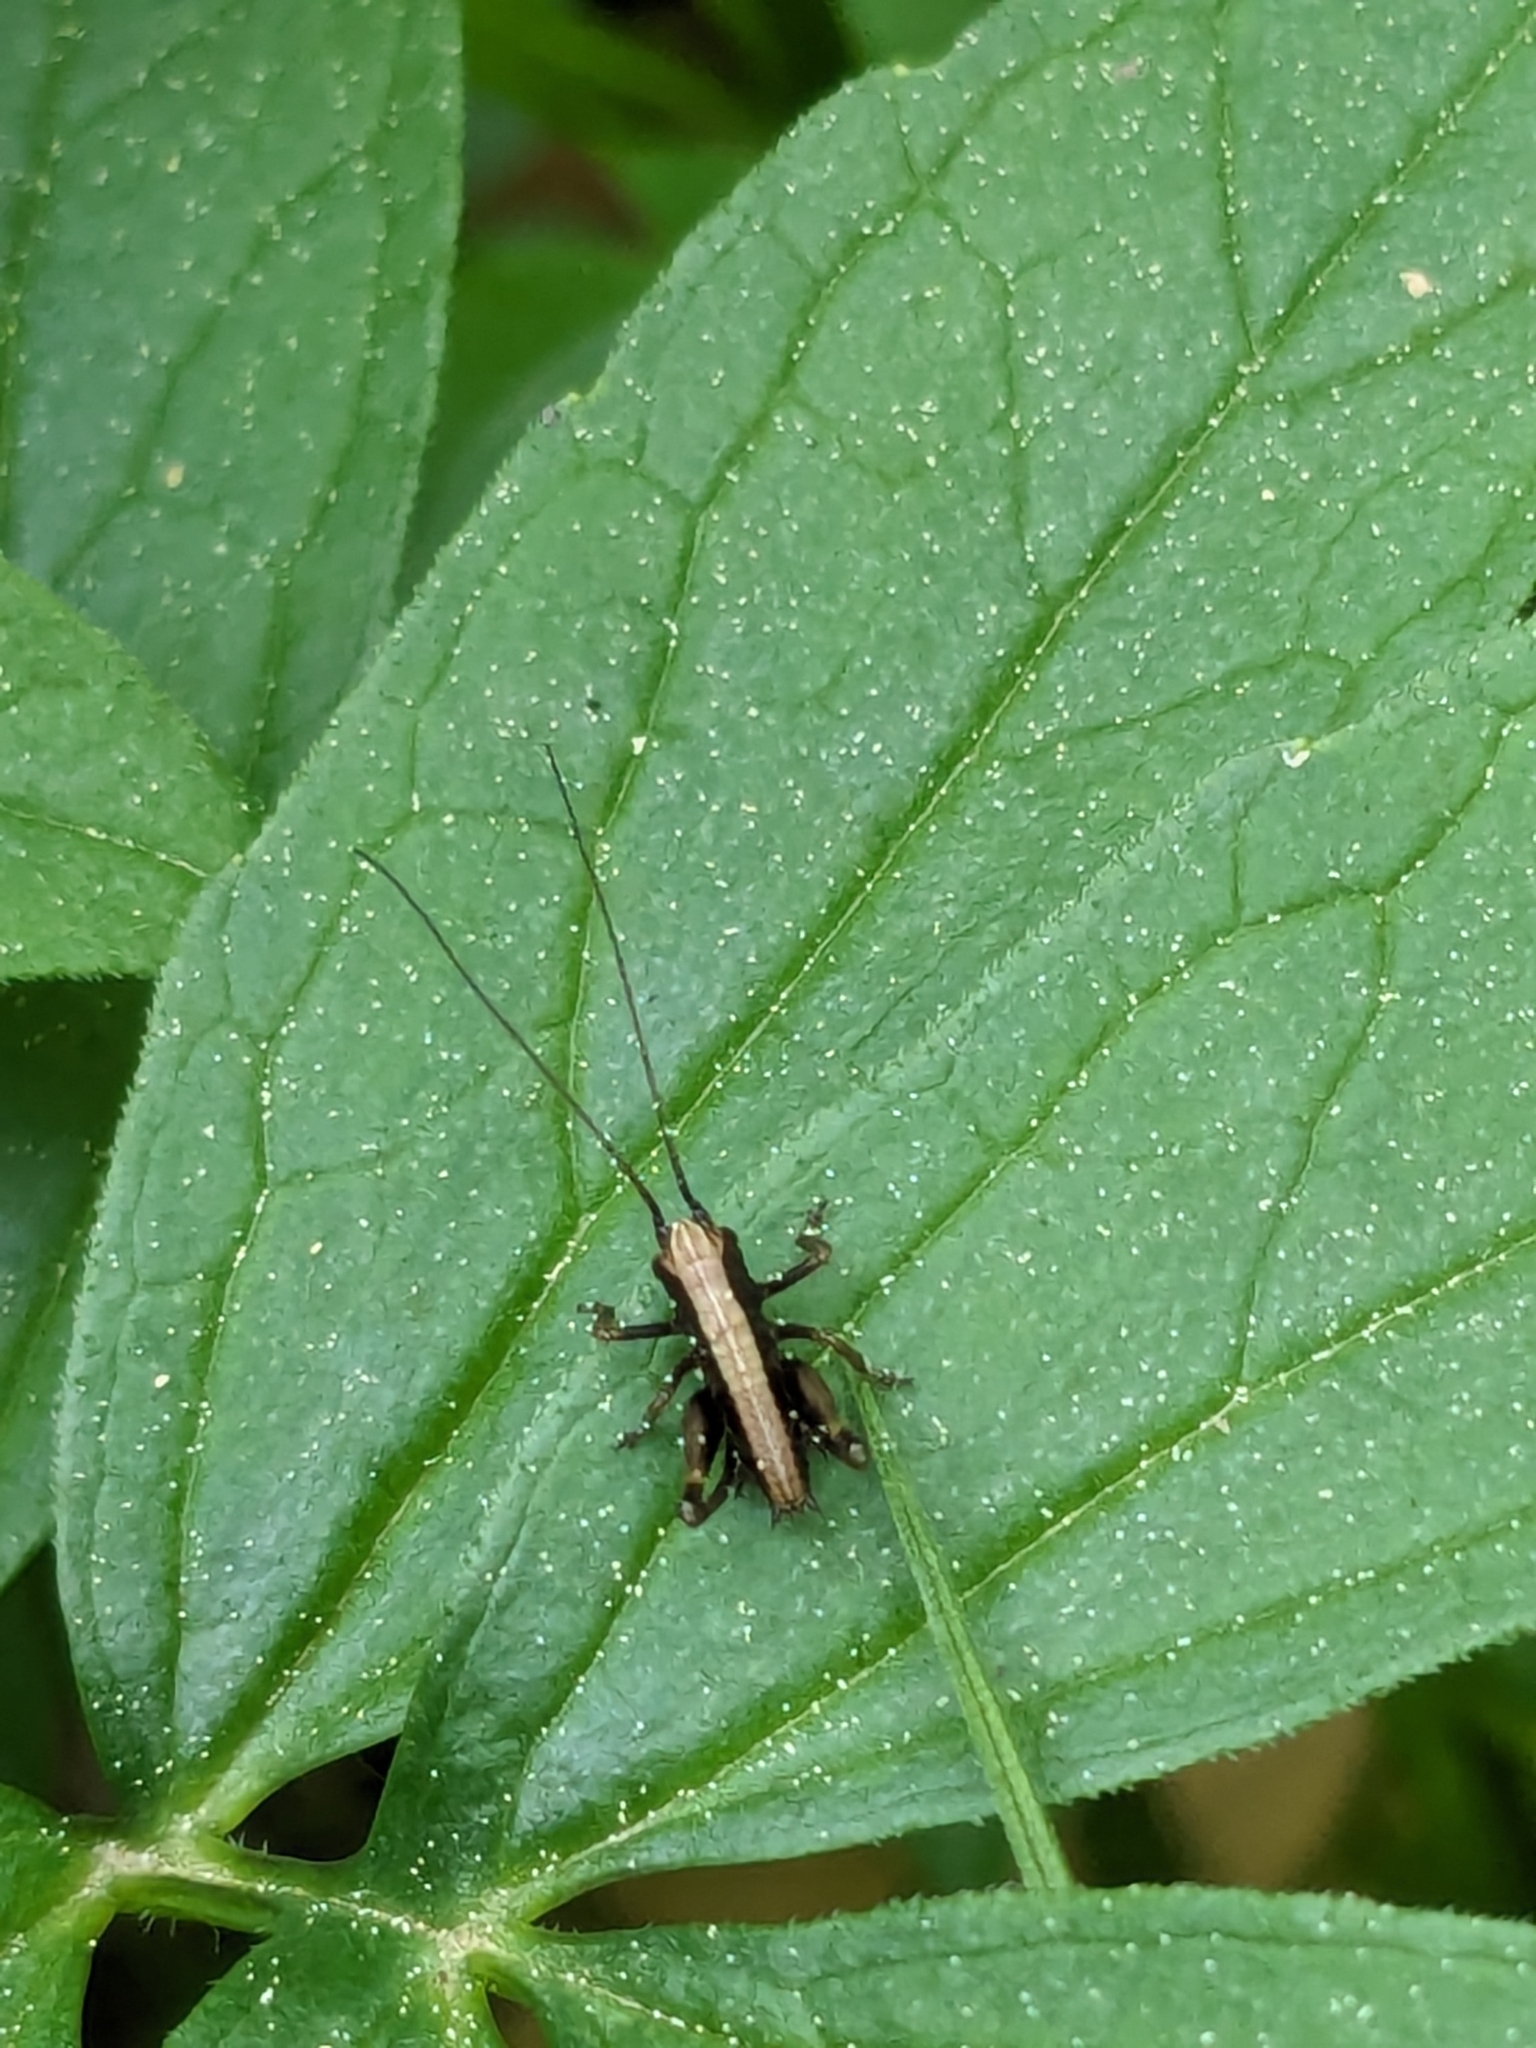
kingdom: Animalia
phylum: Arthropoda
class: Insecta
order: Orthoptera
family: Tettigoniidae
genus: Pholidoptera
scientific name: Pholidoptera griseoaptera
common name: Dark bush-cricket
